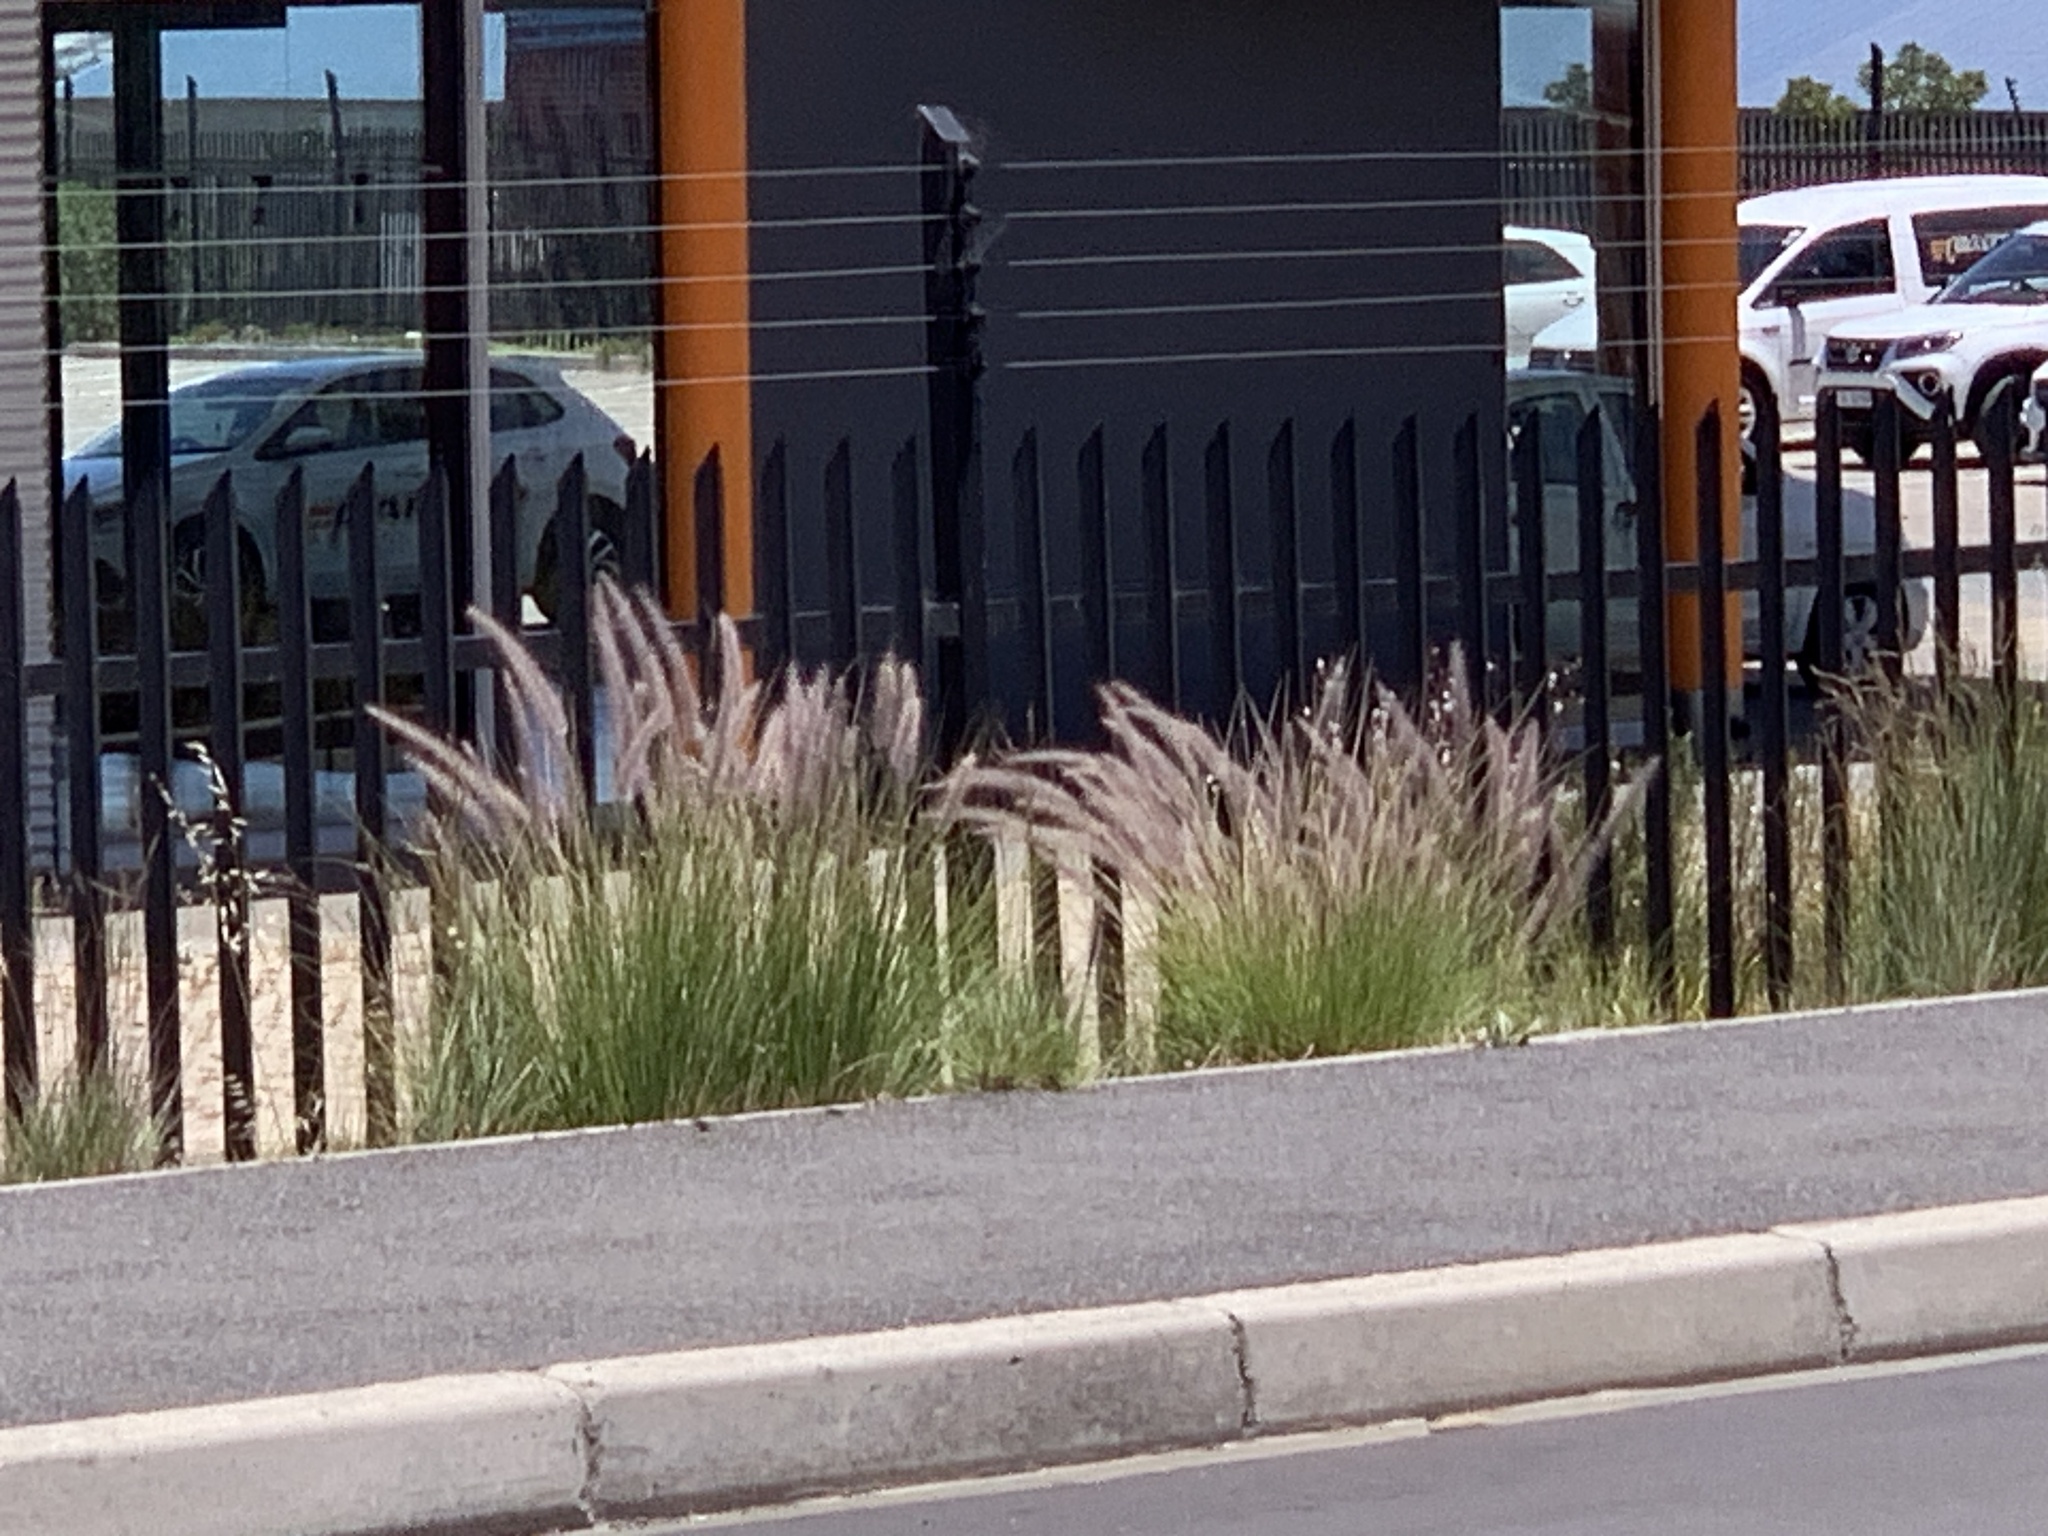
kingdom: Plantae
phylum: Tracheophyta
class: Liliopsida
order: Poales
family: Poaceae
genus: Cenchrus
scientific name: Cenchrus setaceus
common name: Crimson fountaingrass
